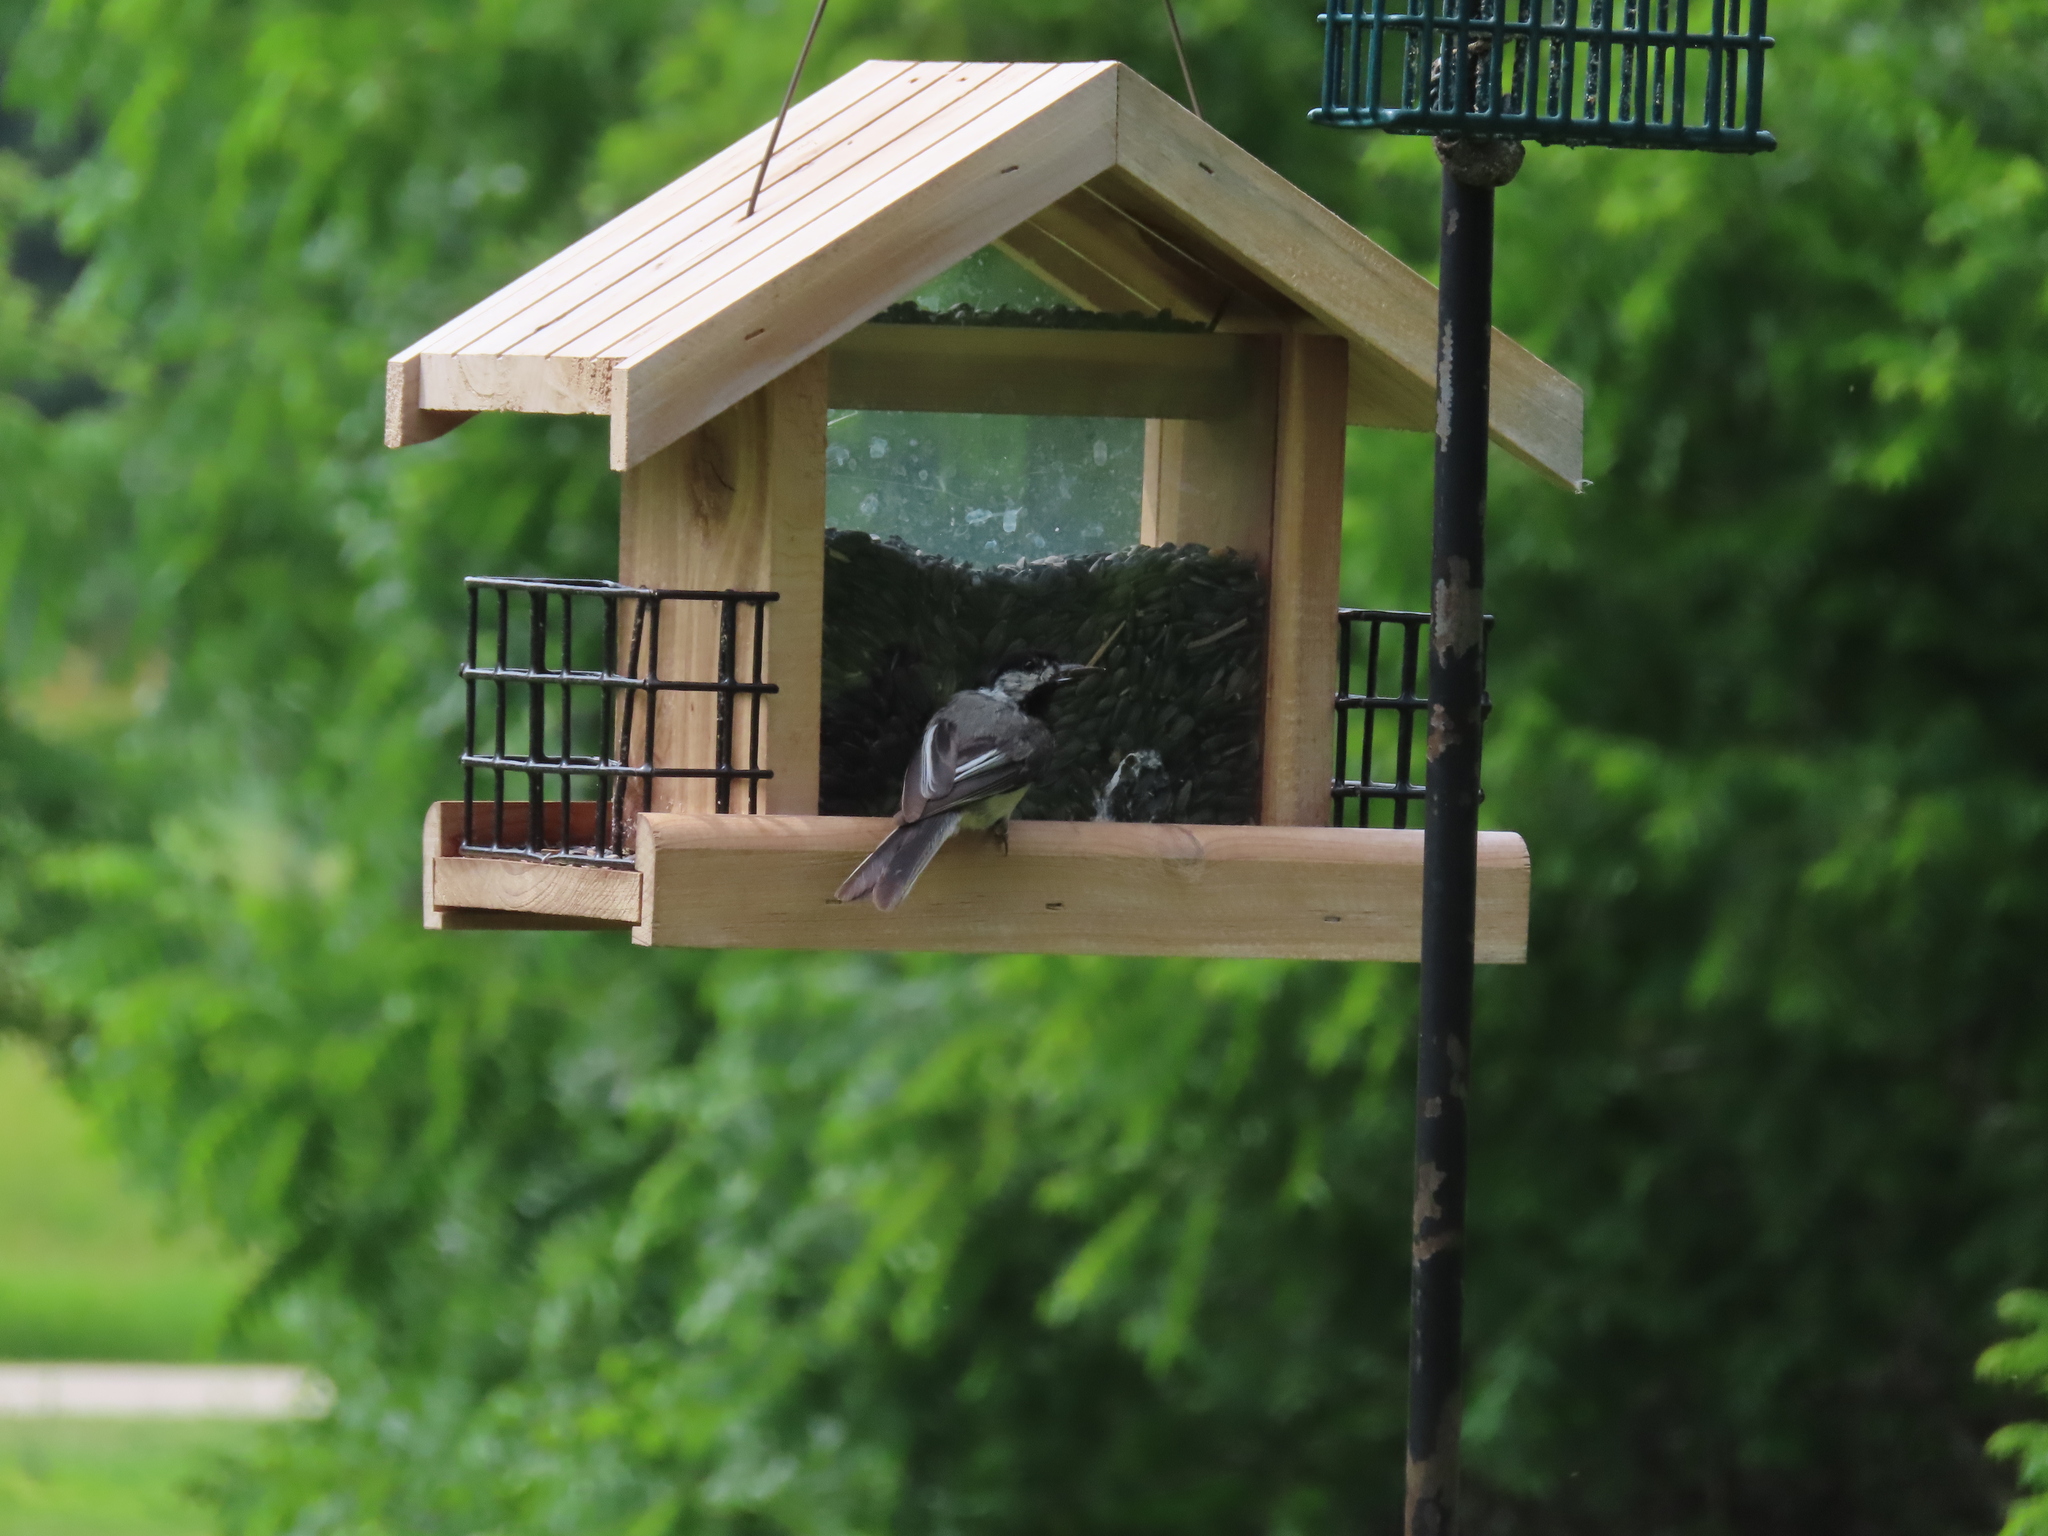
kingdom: Animalia
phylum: Chordata
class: Aves
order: Passeriformes
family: Paridae
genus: Poecile
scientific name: Poecile atricapillus
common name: Black-capped chickadee
